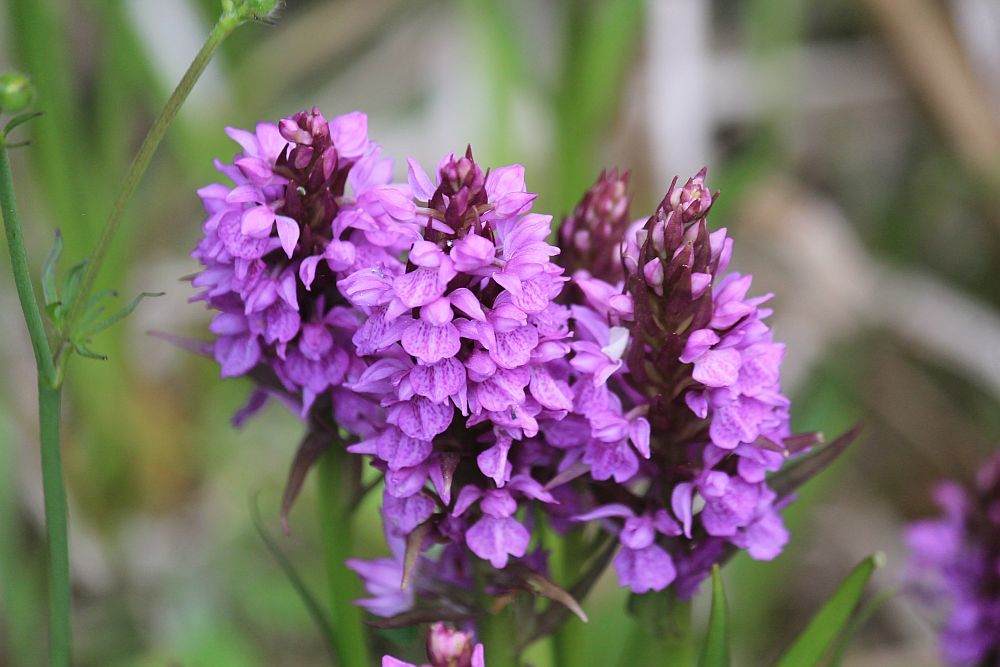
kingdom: Plantae
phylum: Tracheophyta
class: Liliopsida
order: Asparagales
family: Orchidaceae
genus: Dactylorhiza
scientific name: Dactylorhiza majalis
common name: Marsh orchid
